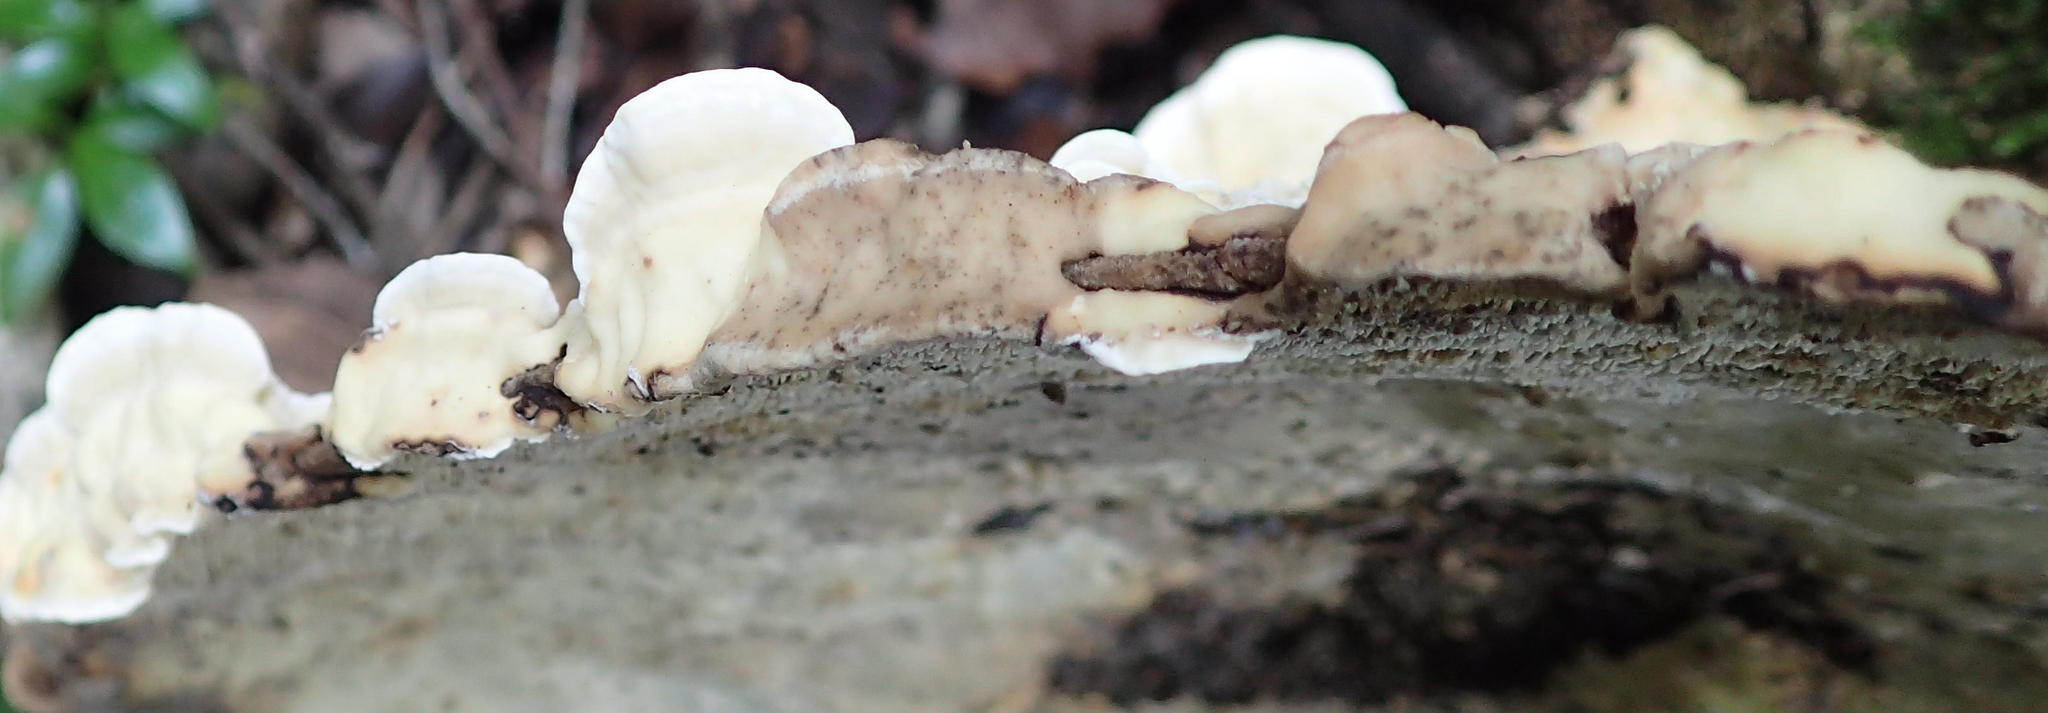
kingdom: Fungi
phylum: Basidiomycota
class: Agaricomycetes
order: Polyporales
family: Polyporaceae
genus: Trametes
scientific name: Trametes elegans
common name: White maze polypore
